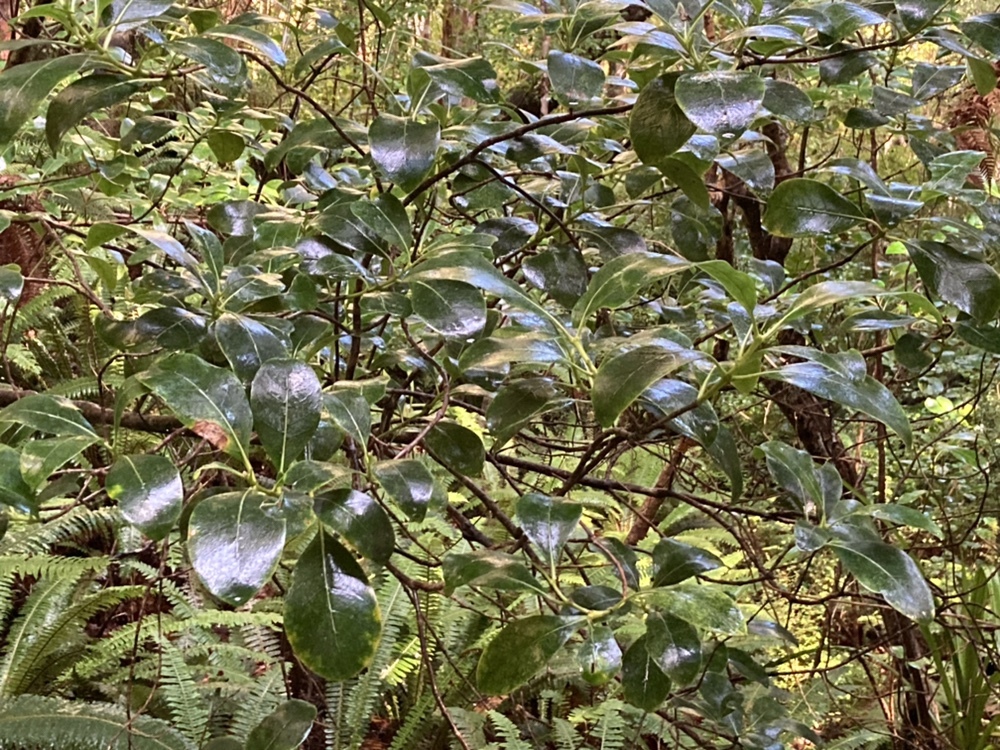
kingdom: Plantae
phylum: Tracheophyta
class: Magnoliopsida
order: Gentianales
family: Rubiaceae
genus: Coprosma
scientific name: Coprosma lucida
